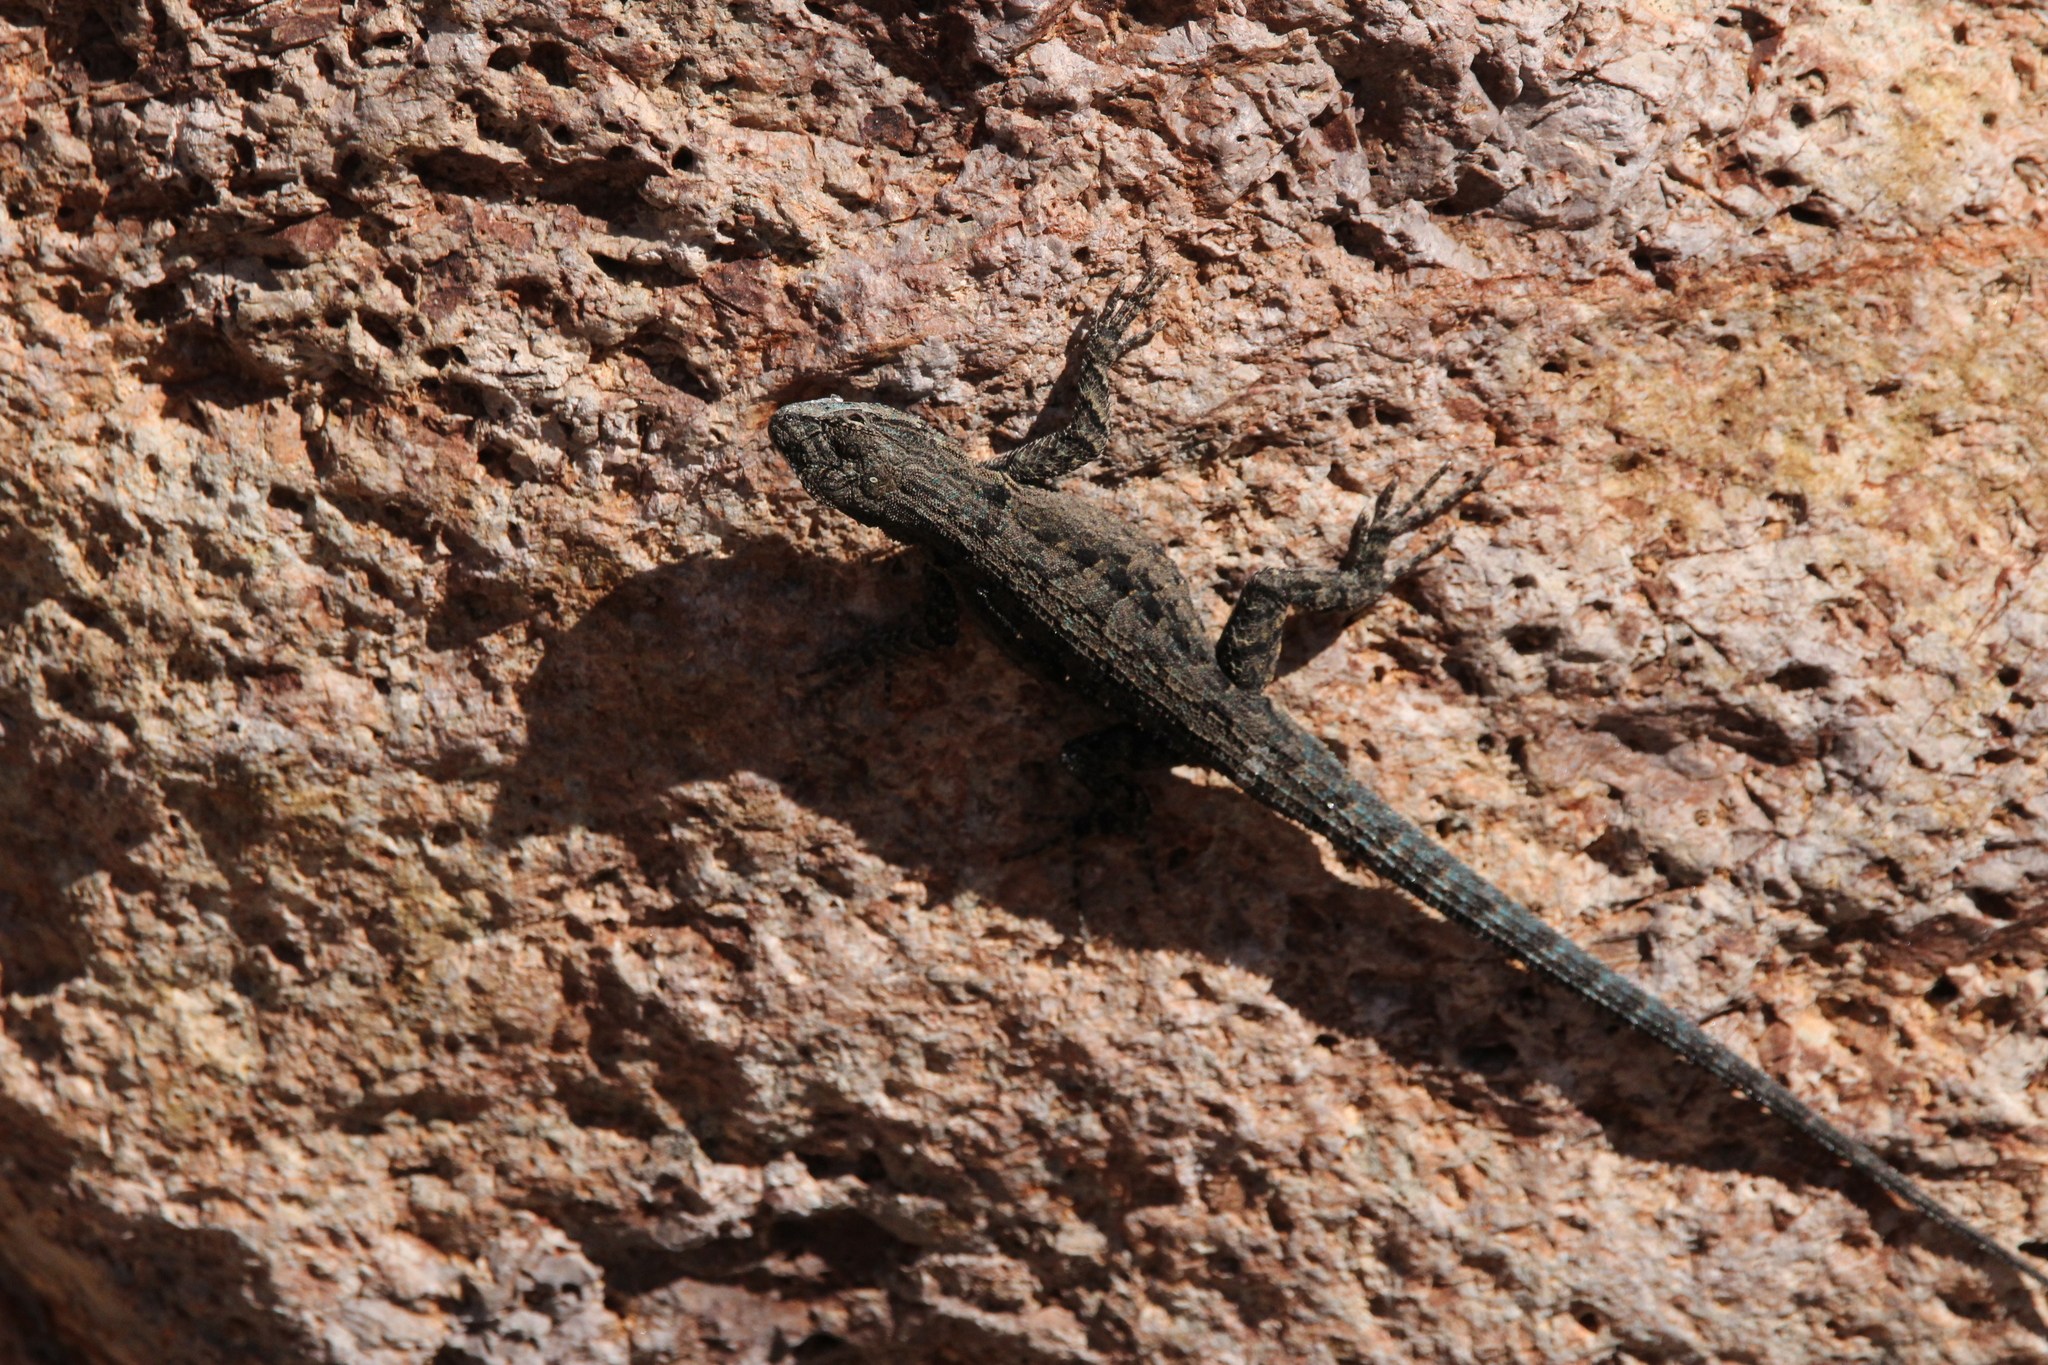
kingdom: Animalia
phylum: Chordata
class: Squamata
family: Phrynosomatidae
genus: Urosaurus
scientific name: Urosaurus ornatus
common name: Ornate tree lizard
